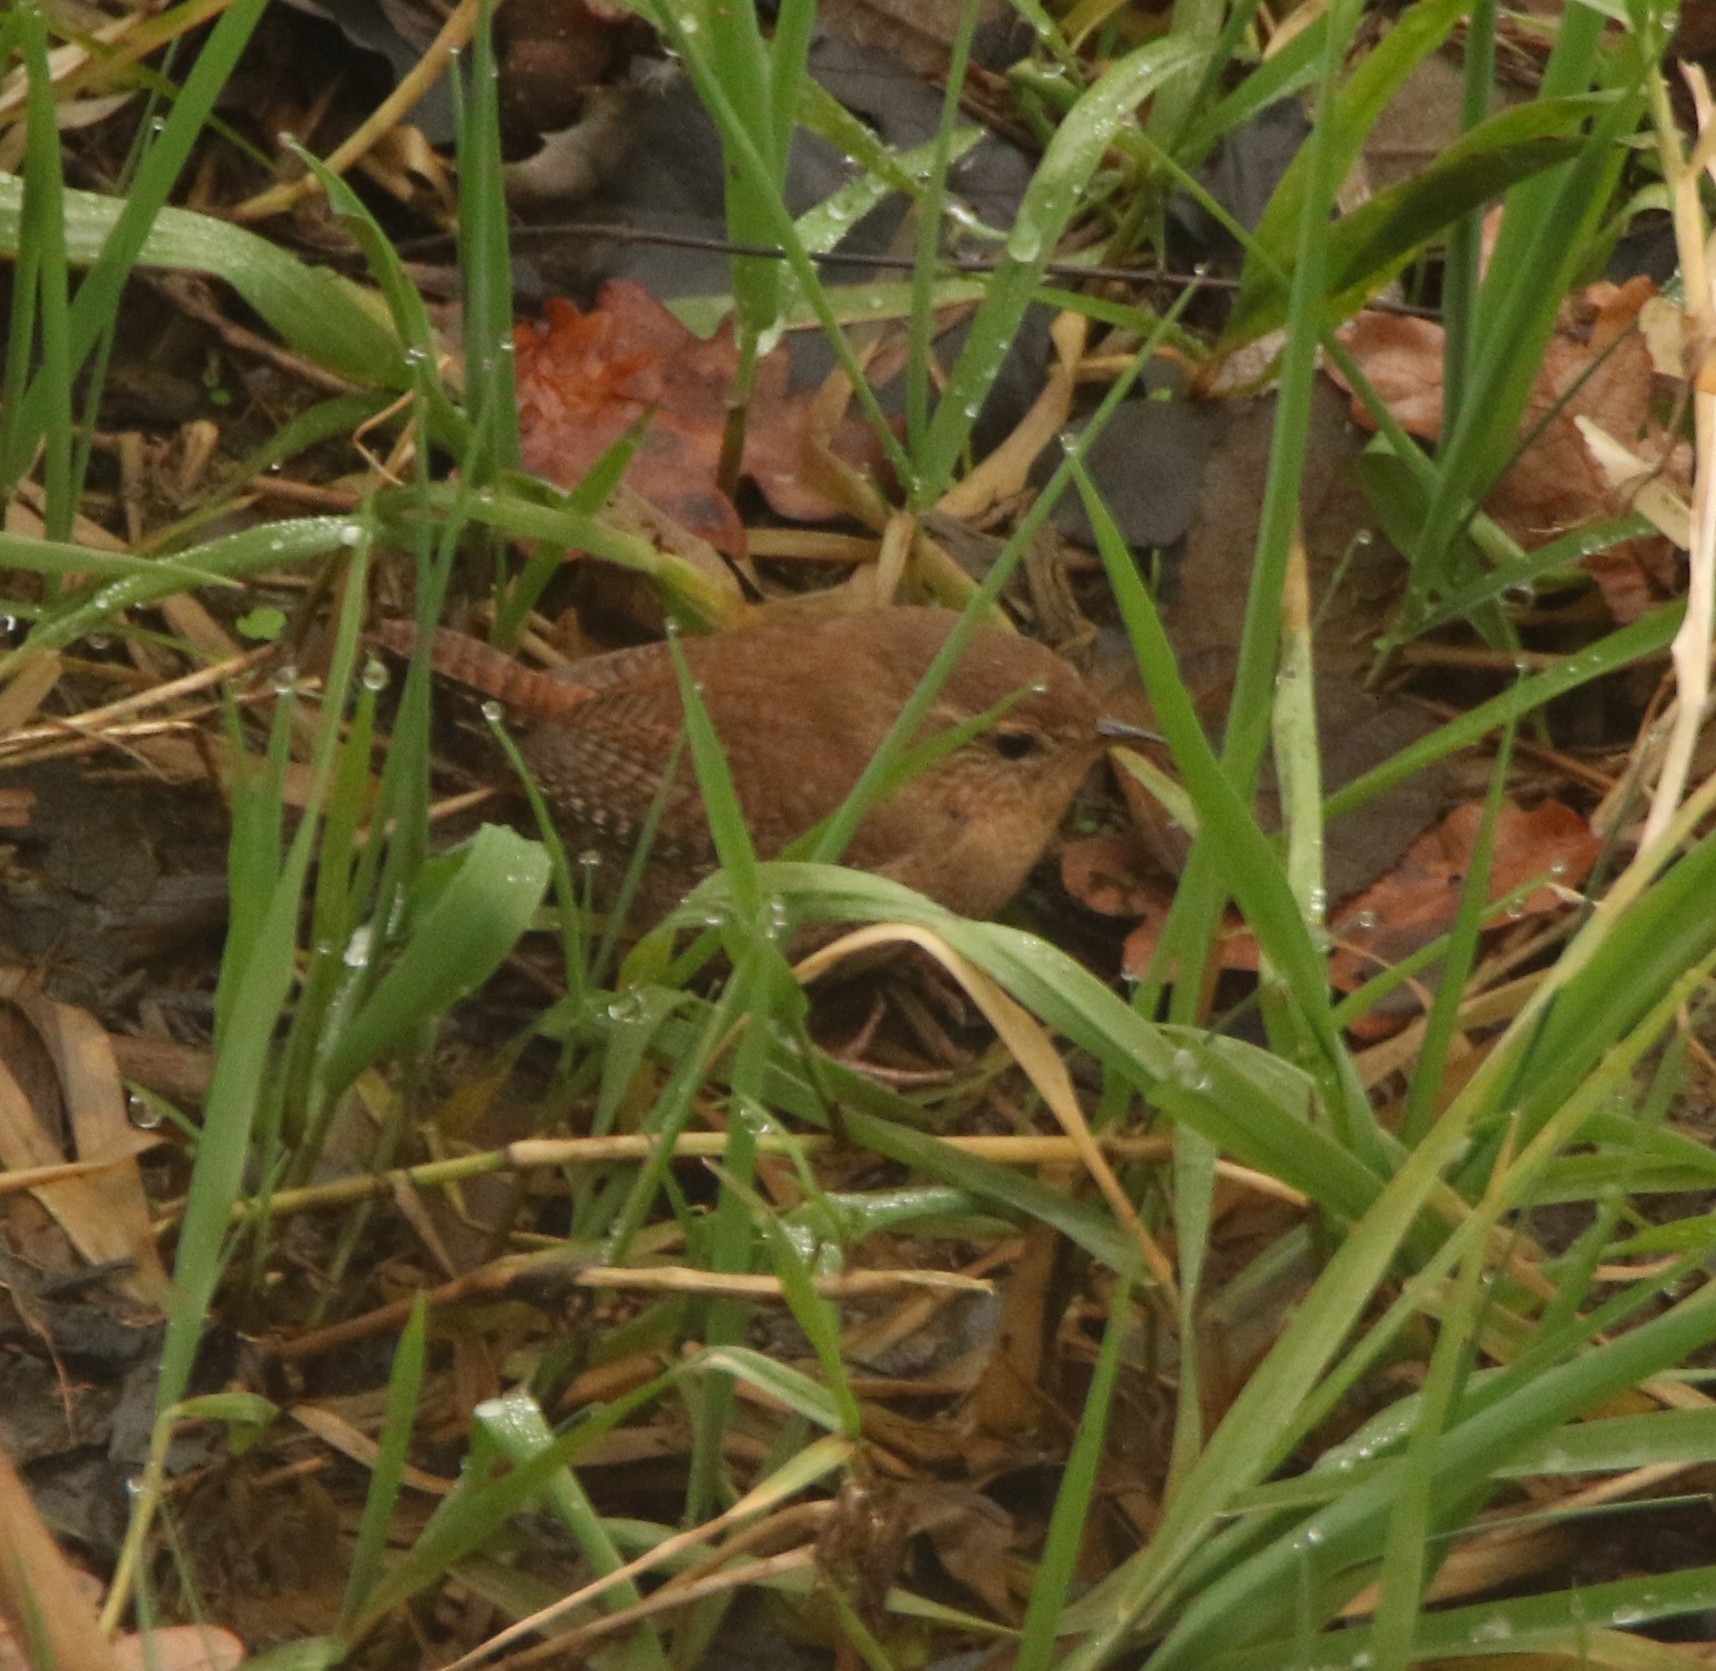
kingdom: Animalia
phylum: Chordata
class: Aves
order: Passeriformes
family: Troglodytidae
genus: Troglodytes
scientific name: Troglodytes troglodytes
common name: Eurasian wren
